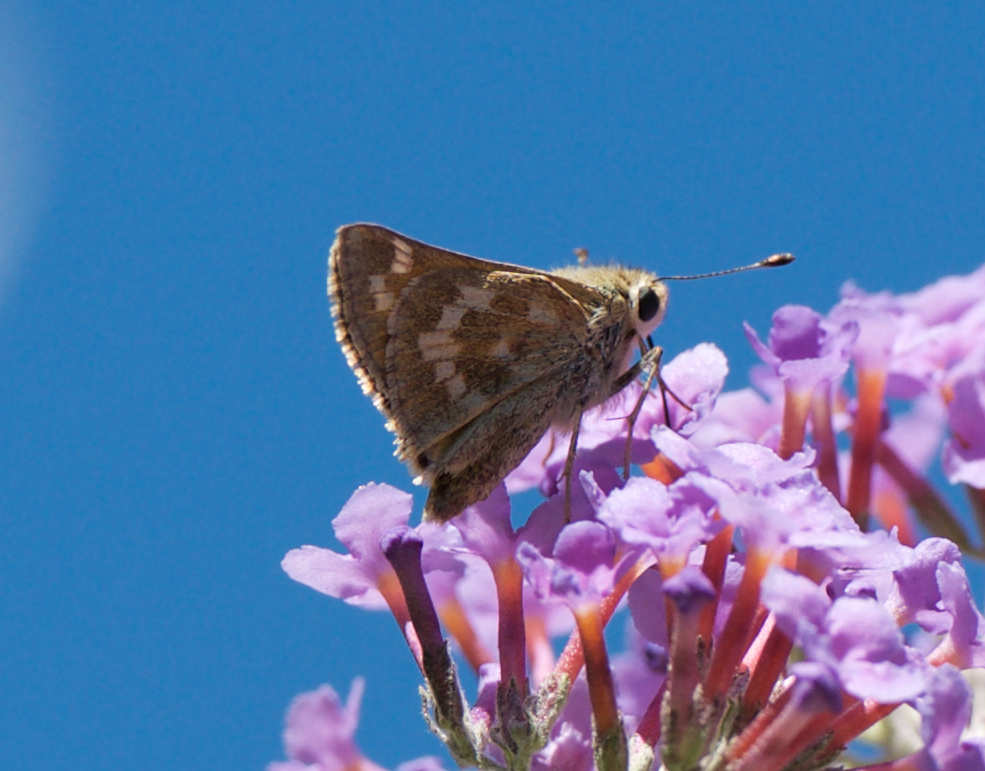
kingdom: Animalia
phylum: Arthropoda
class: Insecta
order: Lepidoptera
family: Hesperiidae
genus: Atalopedes
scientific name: Atalopedes campestris
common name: Sachem
